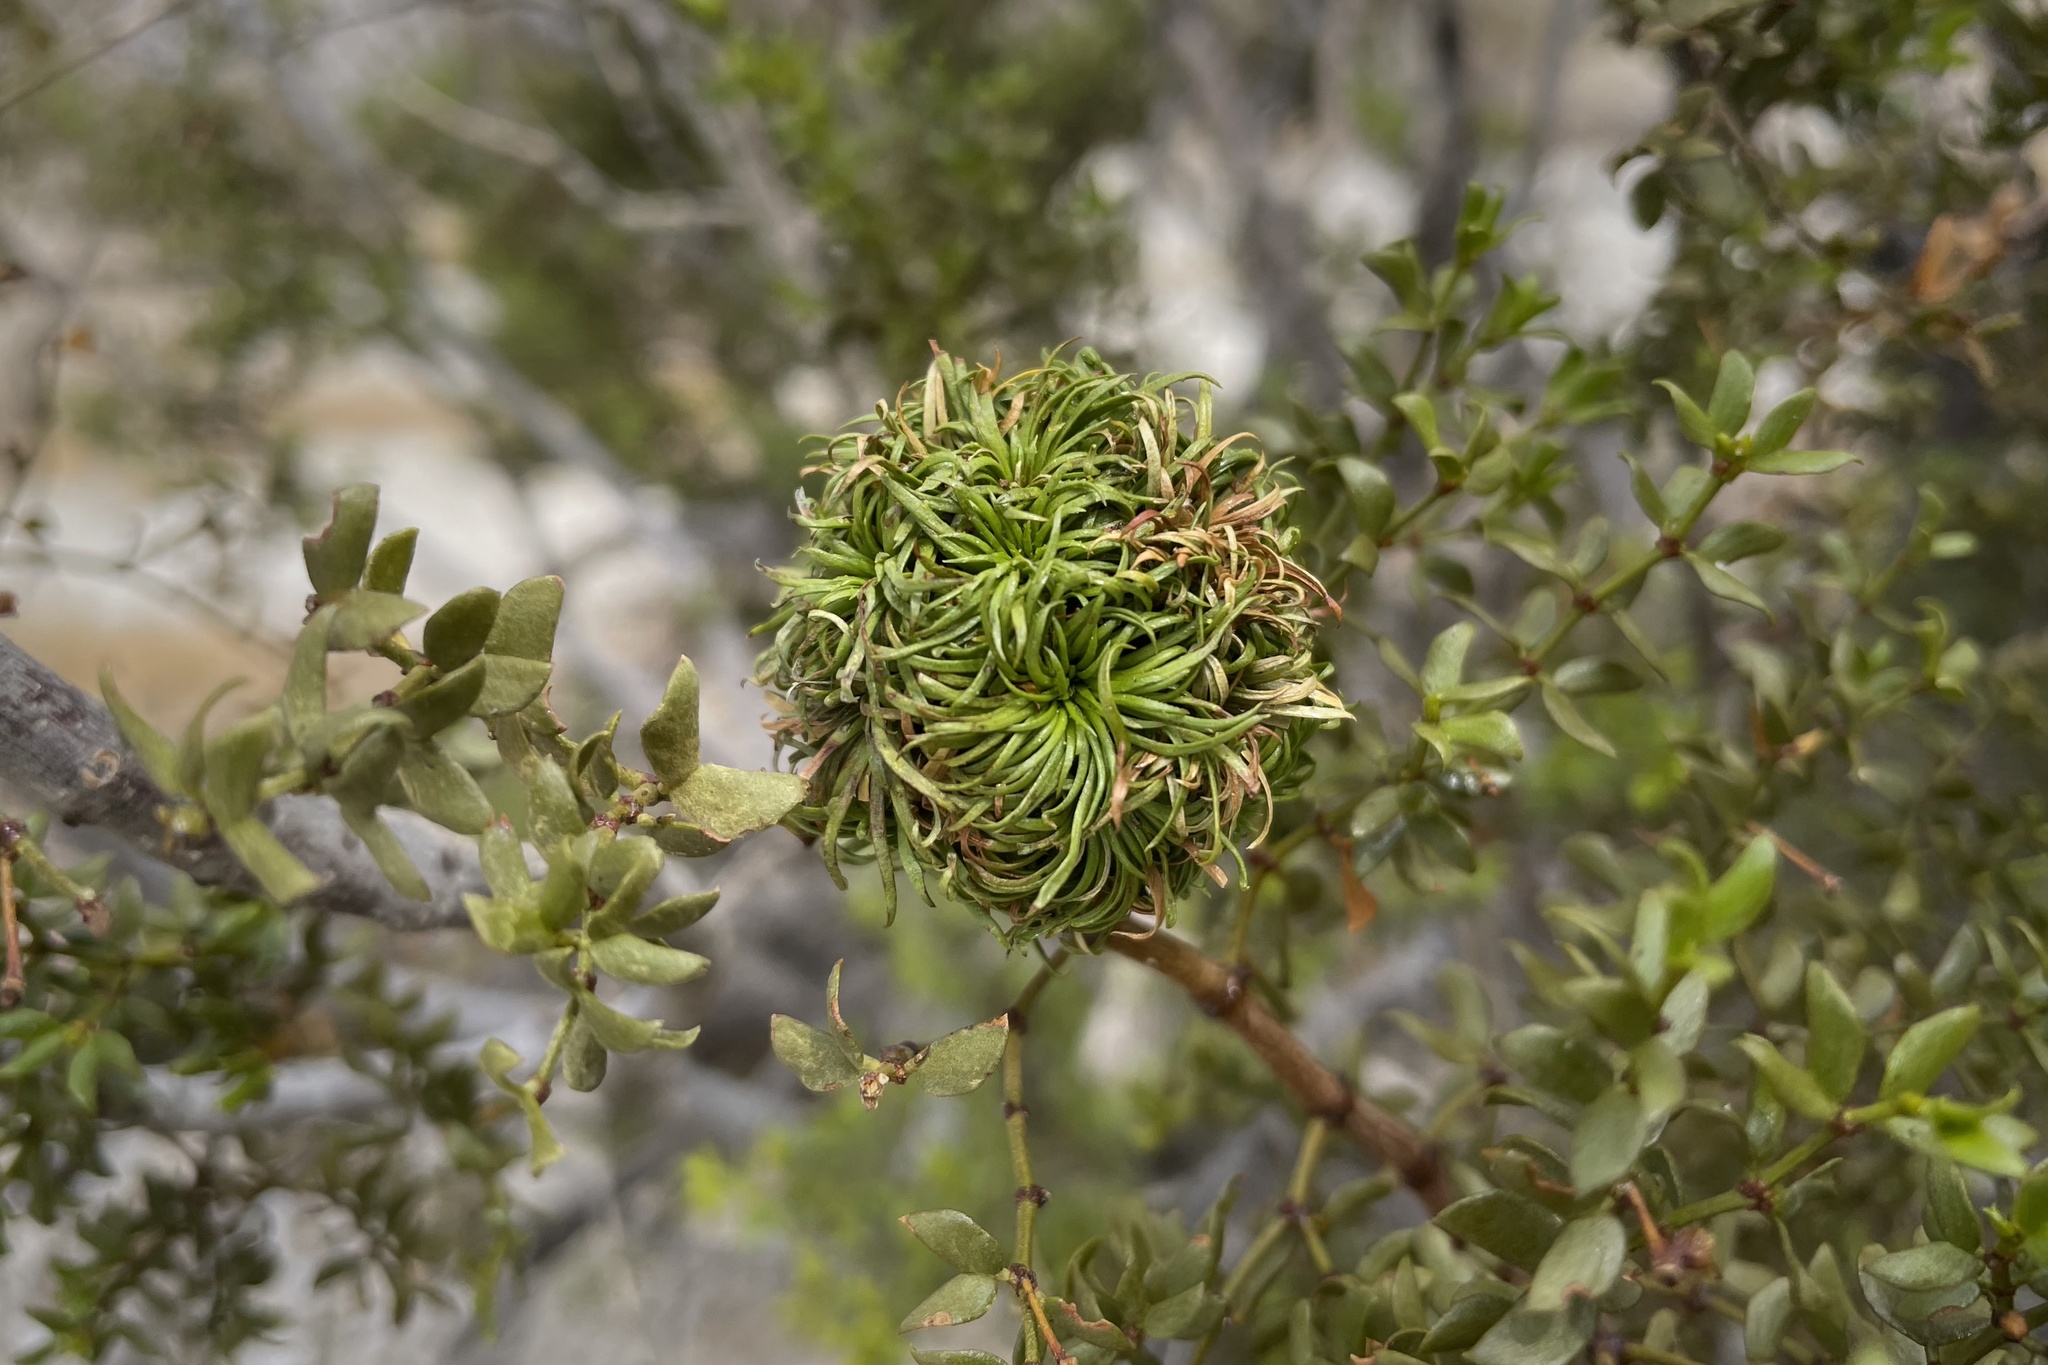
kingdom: Animalia
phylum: Arthropoda
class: Insecta
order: Diptera
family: Cecidomyiidae
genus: Asphondylia
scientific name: Asphondylia auripila
